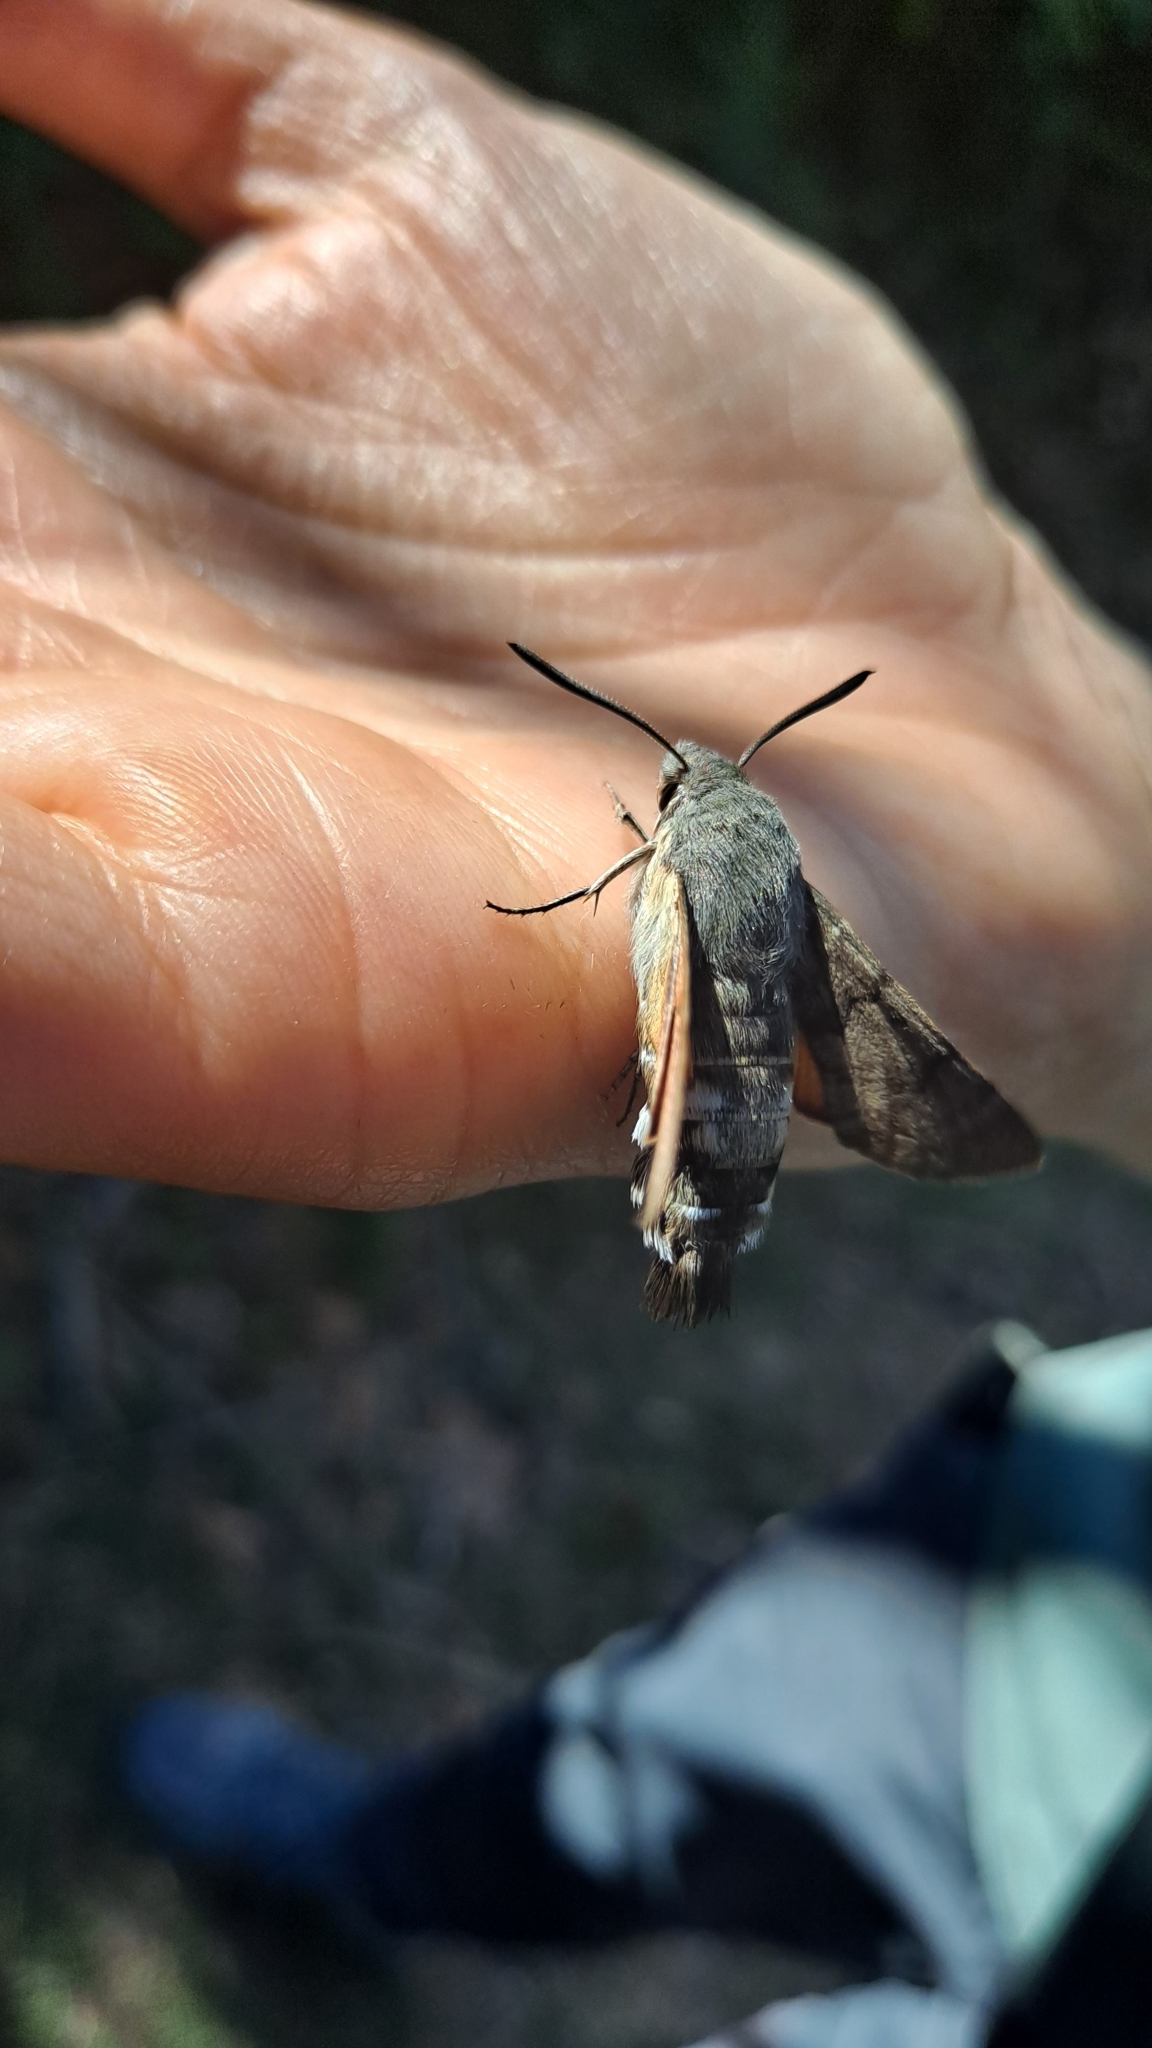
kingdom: Animalia
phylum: Arthropoda
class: Insecta
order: Lepidoptera
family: Sphingidae
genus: Macroglossum
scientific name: Macroglossum stellatarum
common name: Humming-bird hawk-moth
